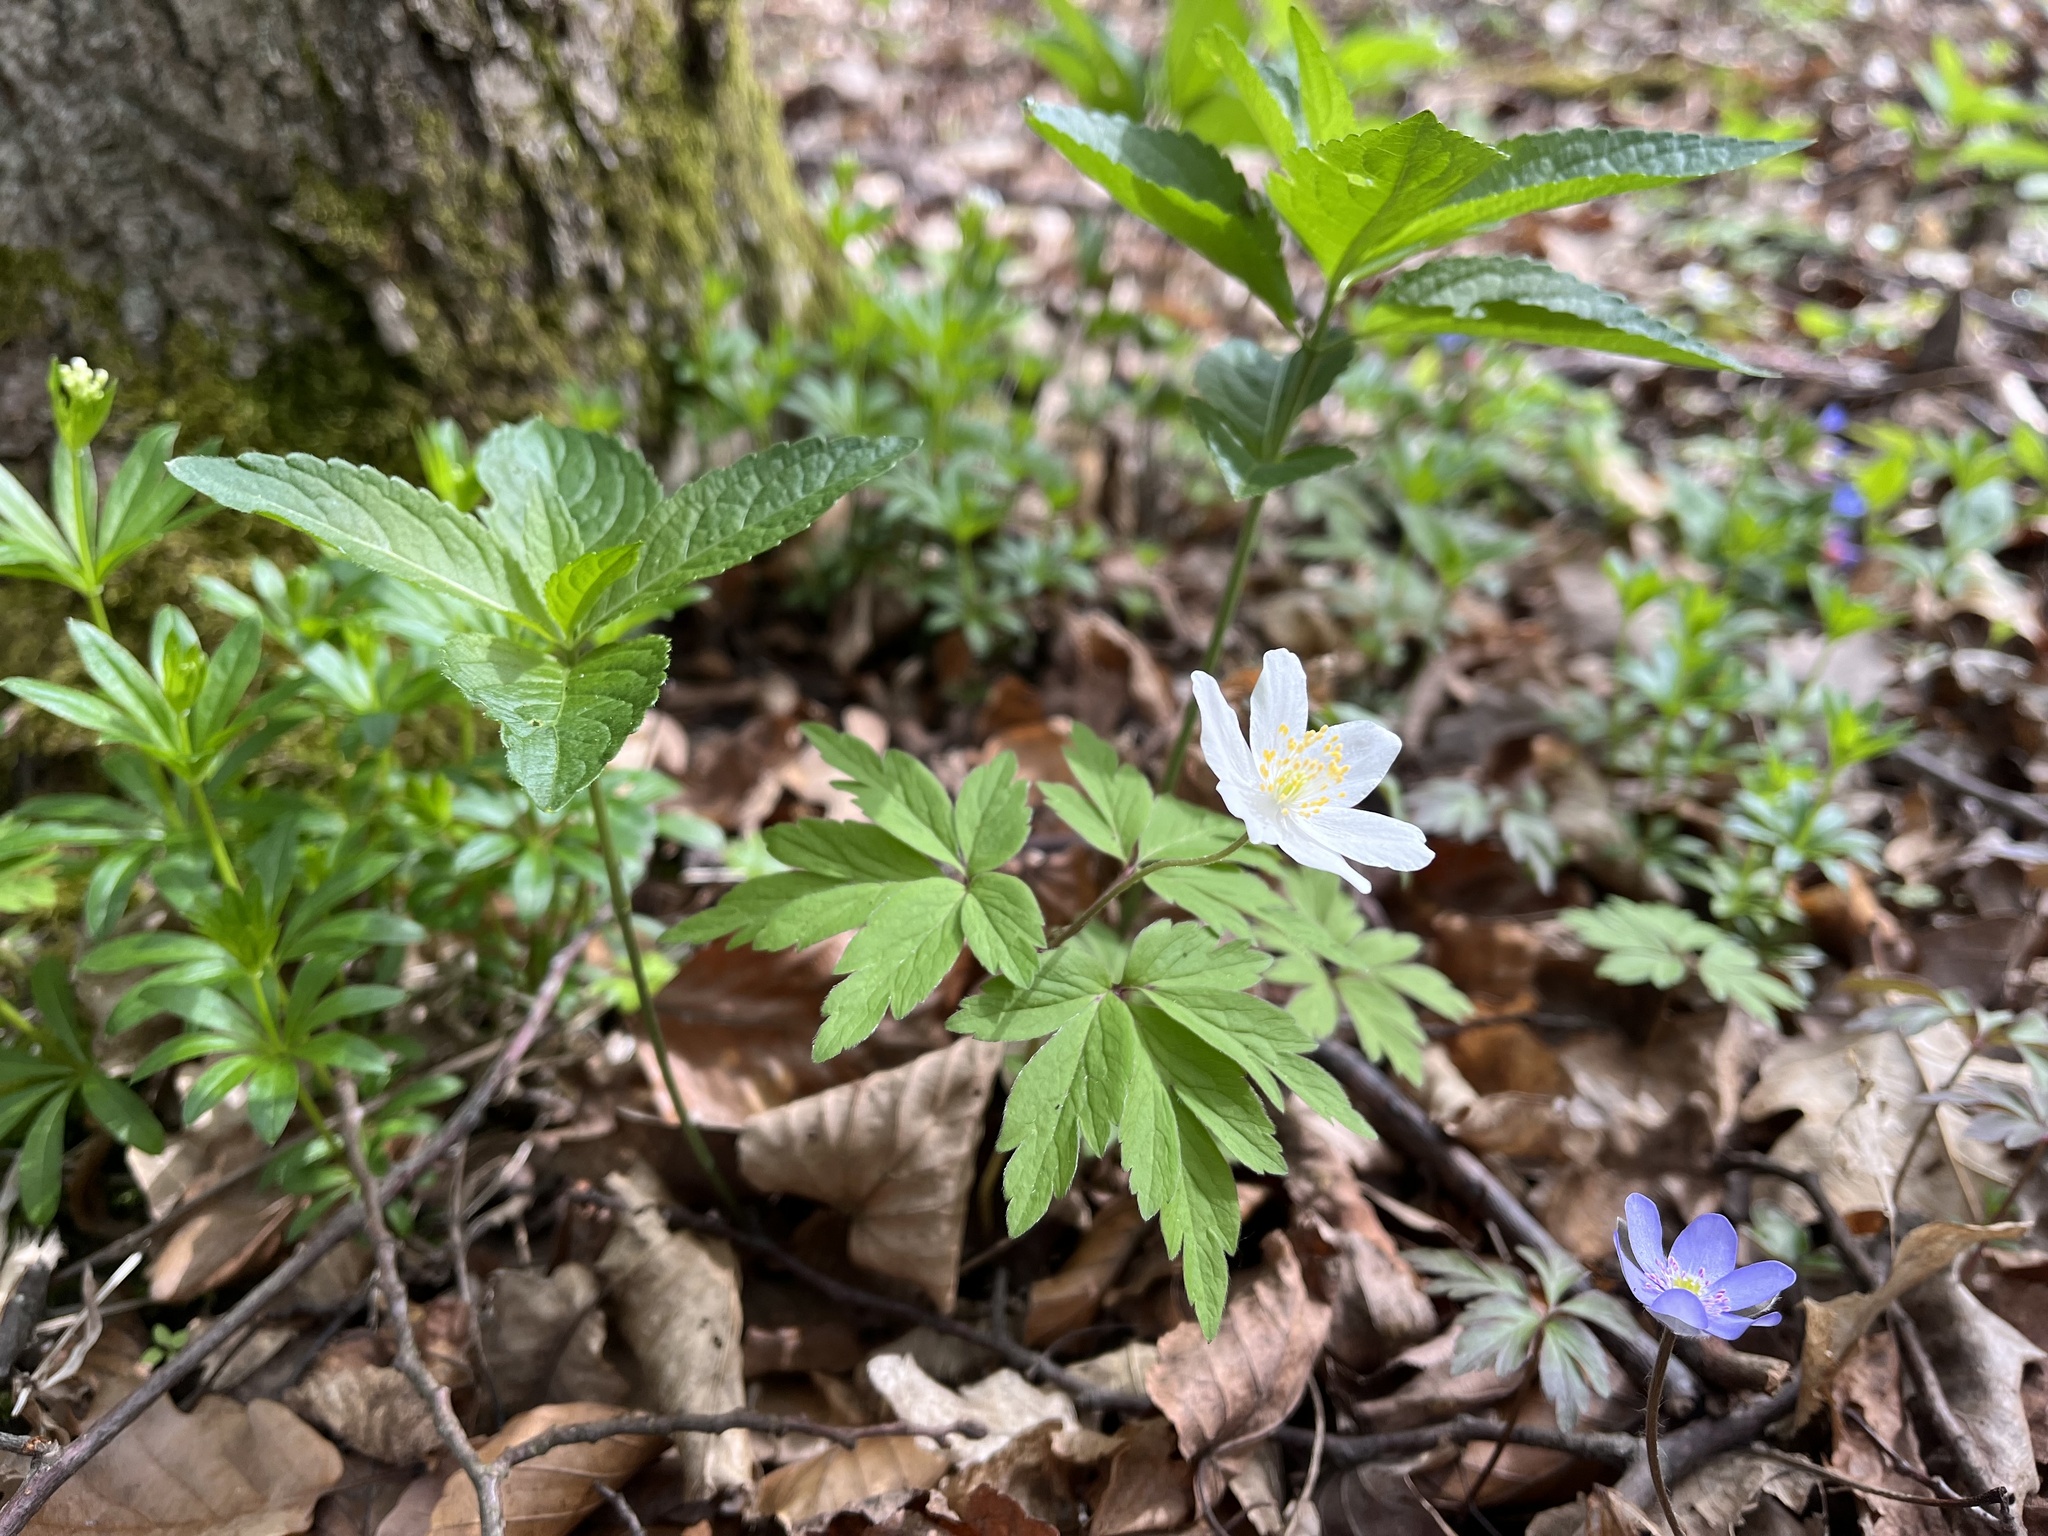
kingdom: Plantae
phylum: Tracheophyta
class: Magnoliopsida
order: Ranunculales
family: Ranunculaceae
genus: Anemone
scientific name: Anemone nemorosa
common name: Wood anemone
